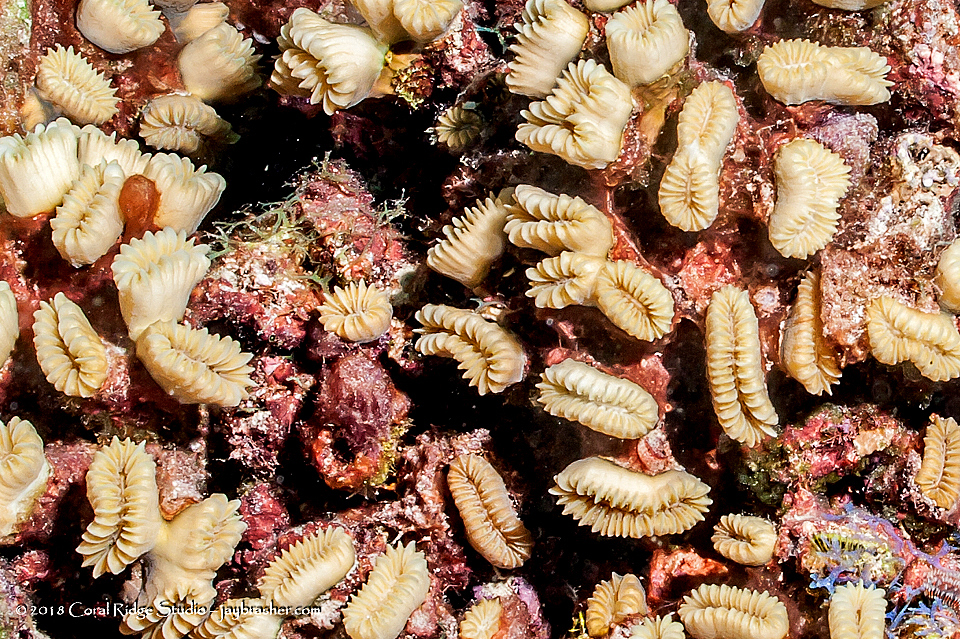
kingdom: Animalia
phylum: Cnidaria
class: Anthozoa
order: Scleractinia
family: Meandrinidae
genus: Eusmilia
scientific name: Eusmilia fastigiata
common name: Smooth flower coral
